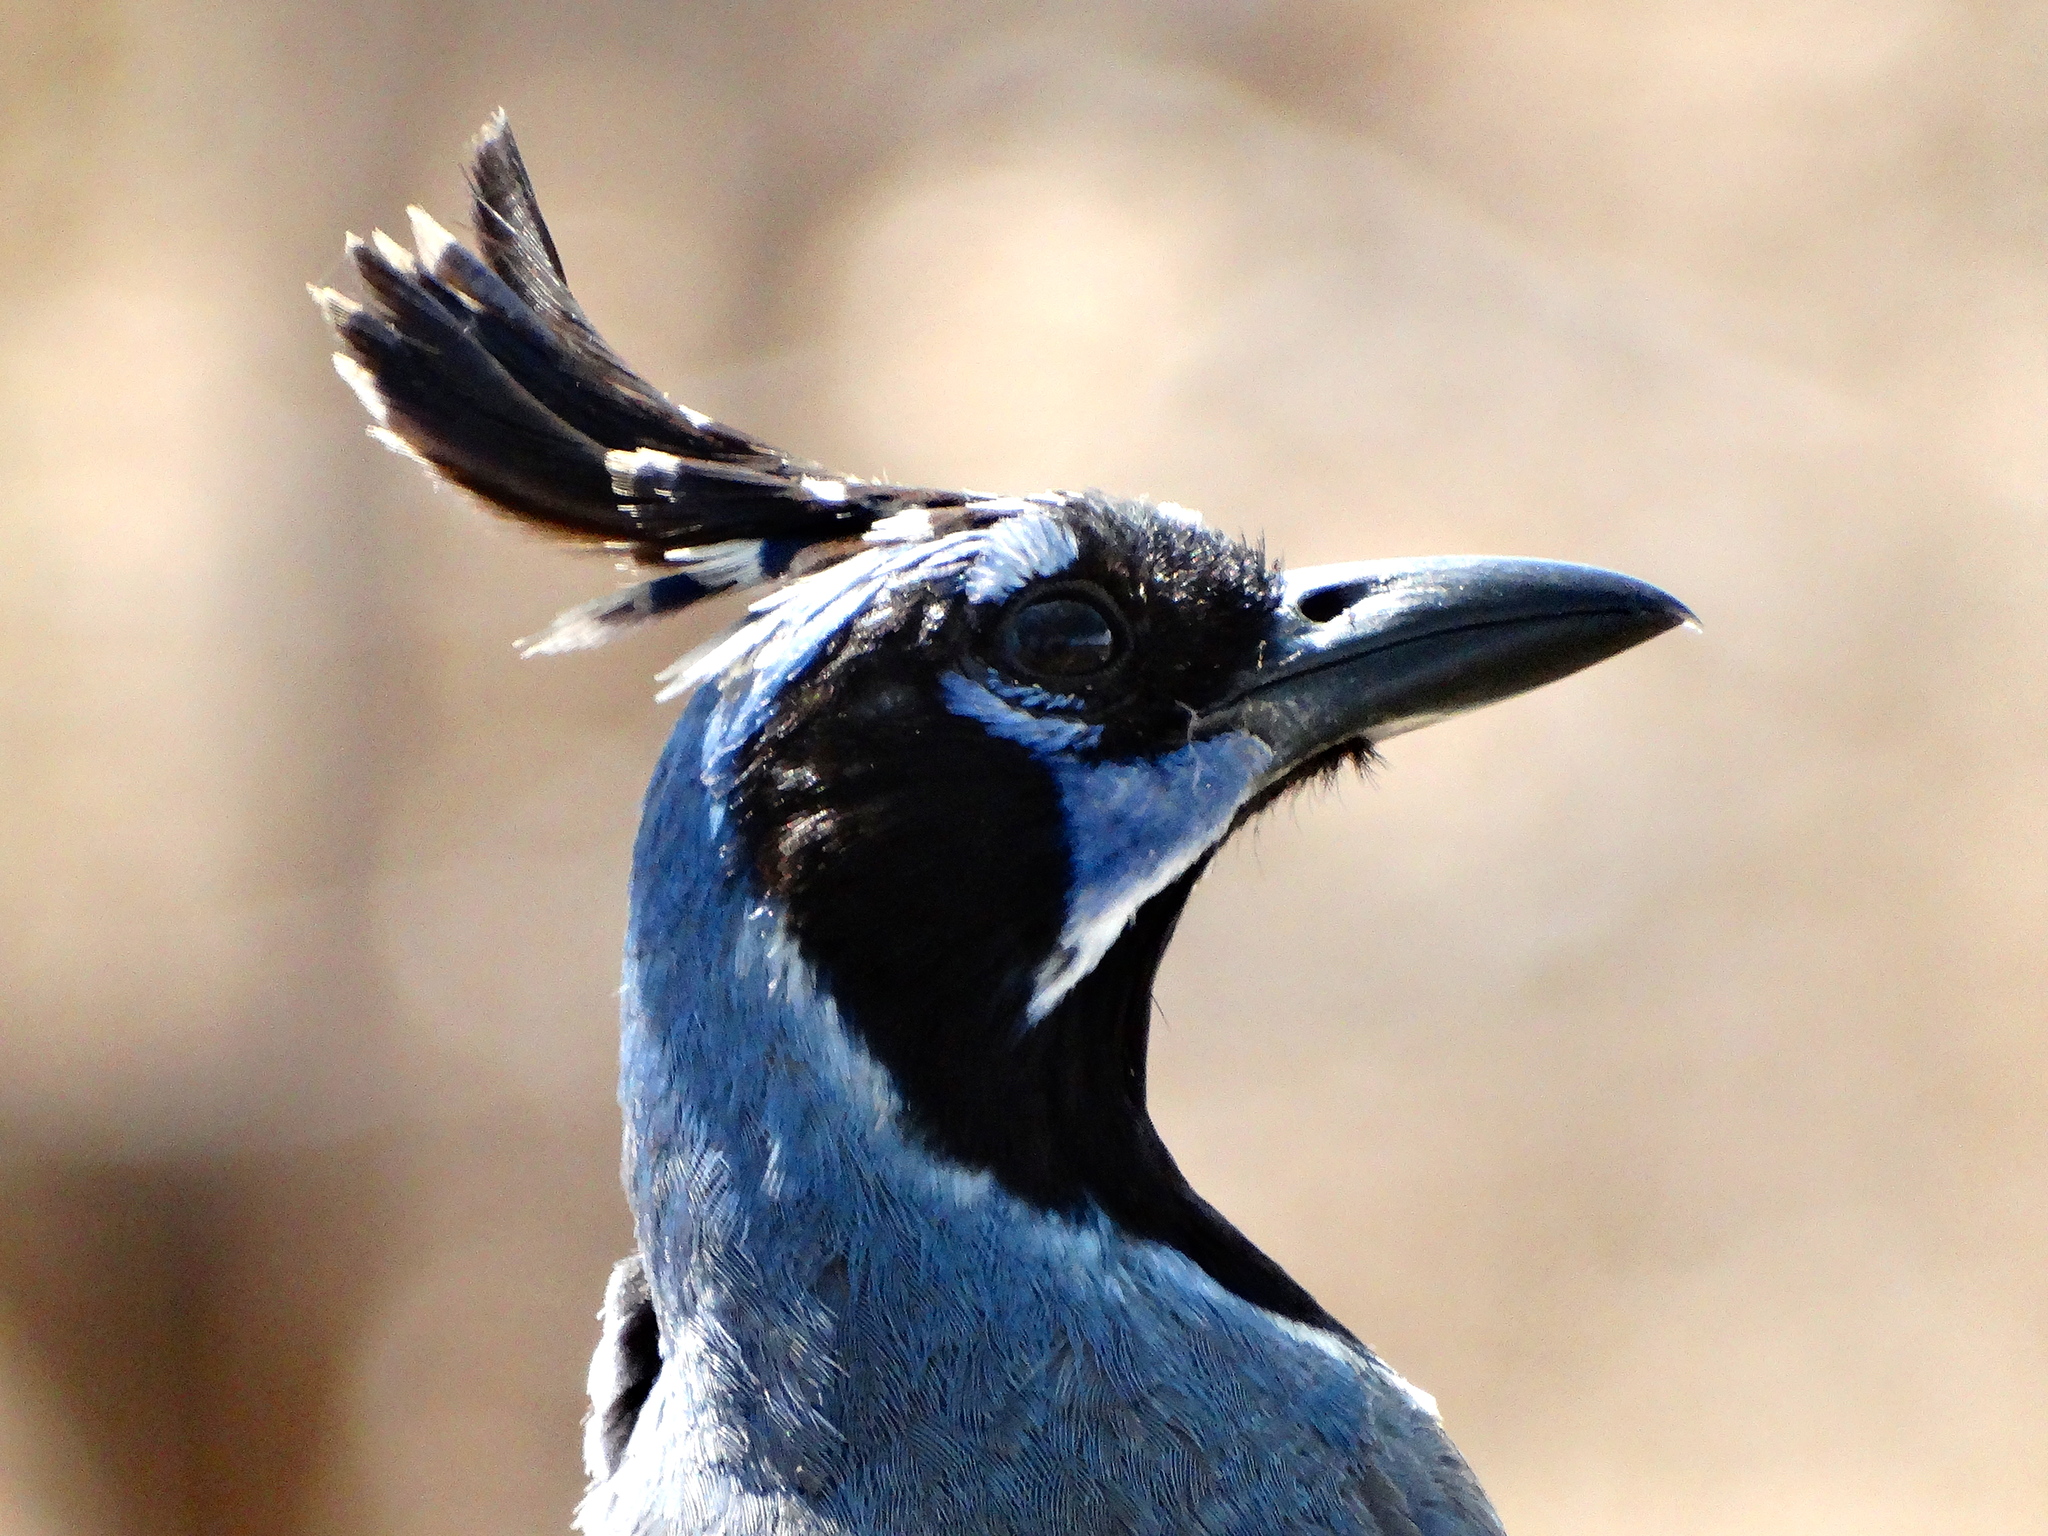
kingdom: Animalia
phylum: Chordata
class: Aves
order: Passeriformes
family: Corvidae
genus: Calocitta
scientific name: Calocitta colliei
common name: Black-throated magpie-jay
